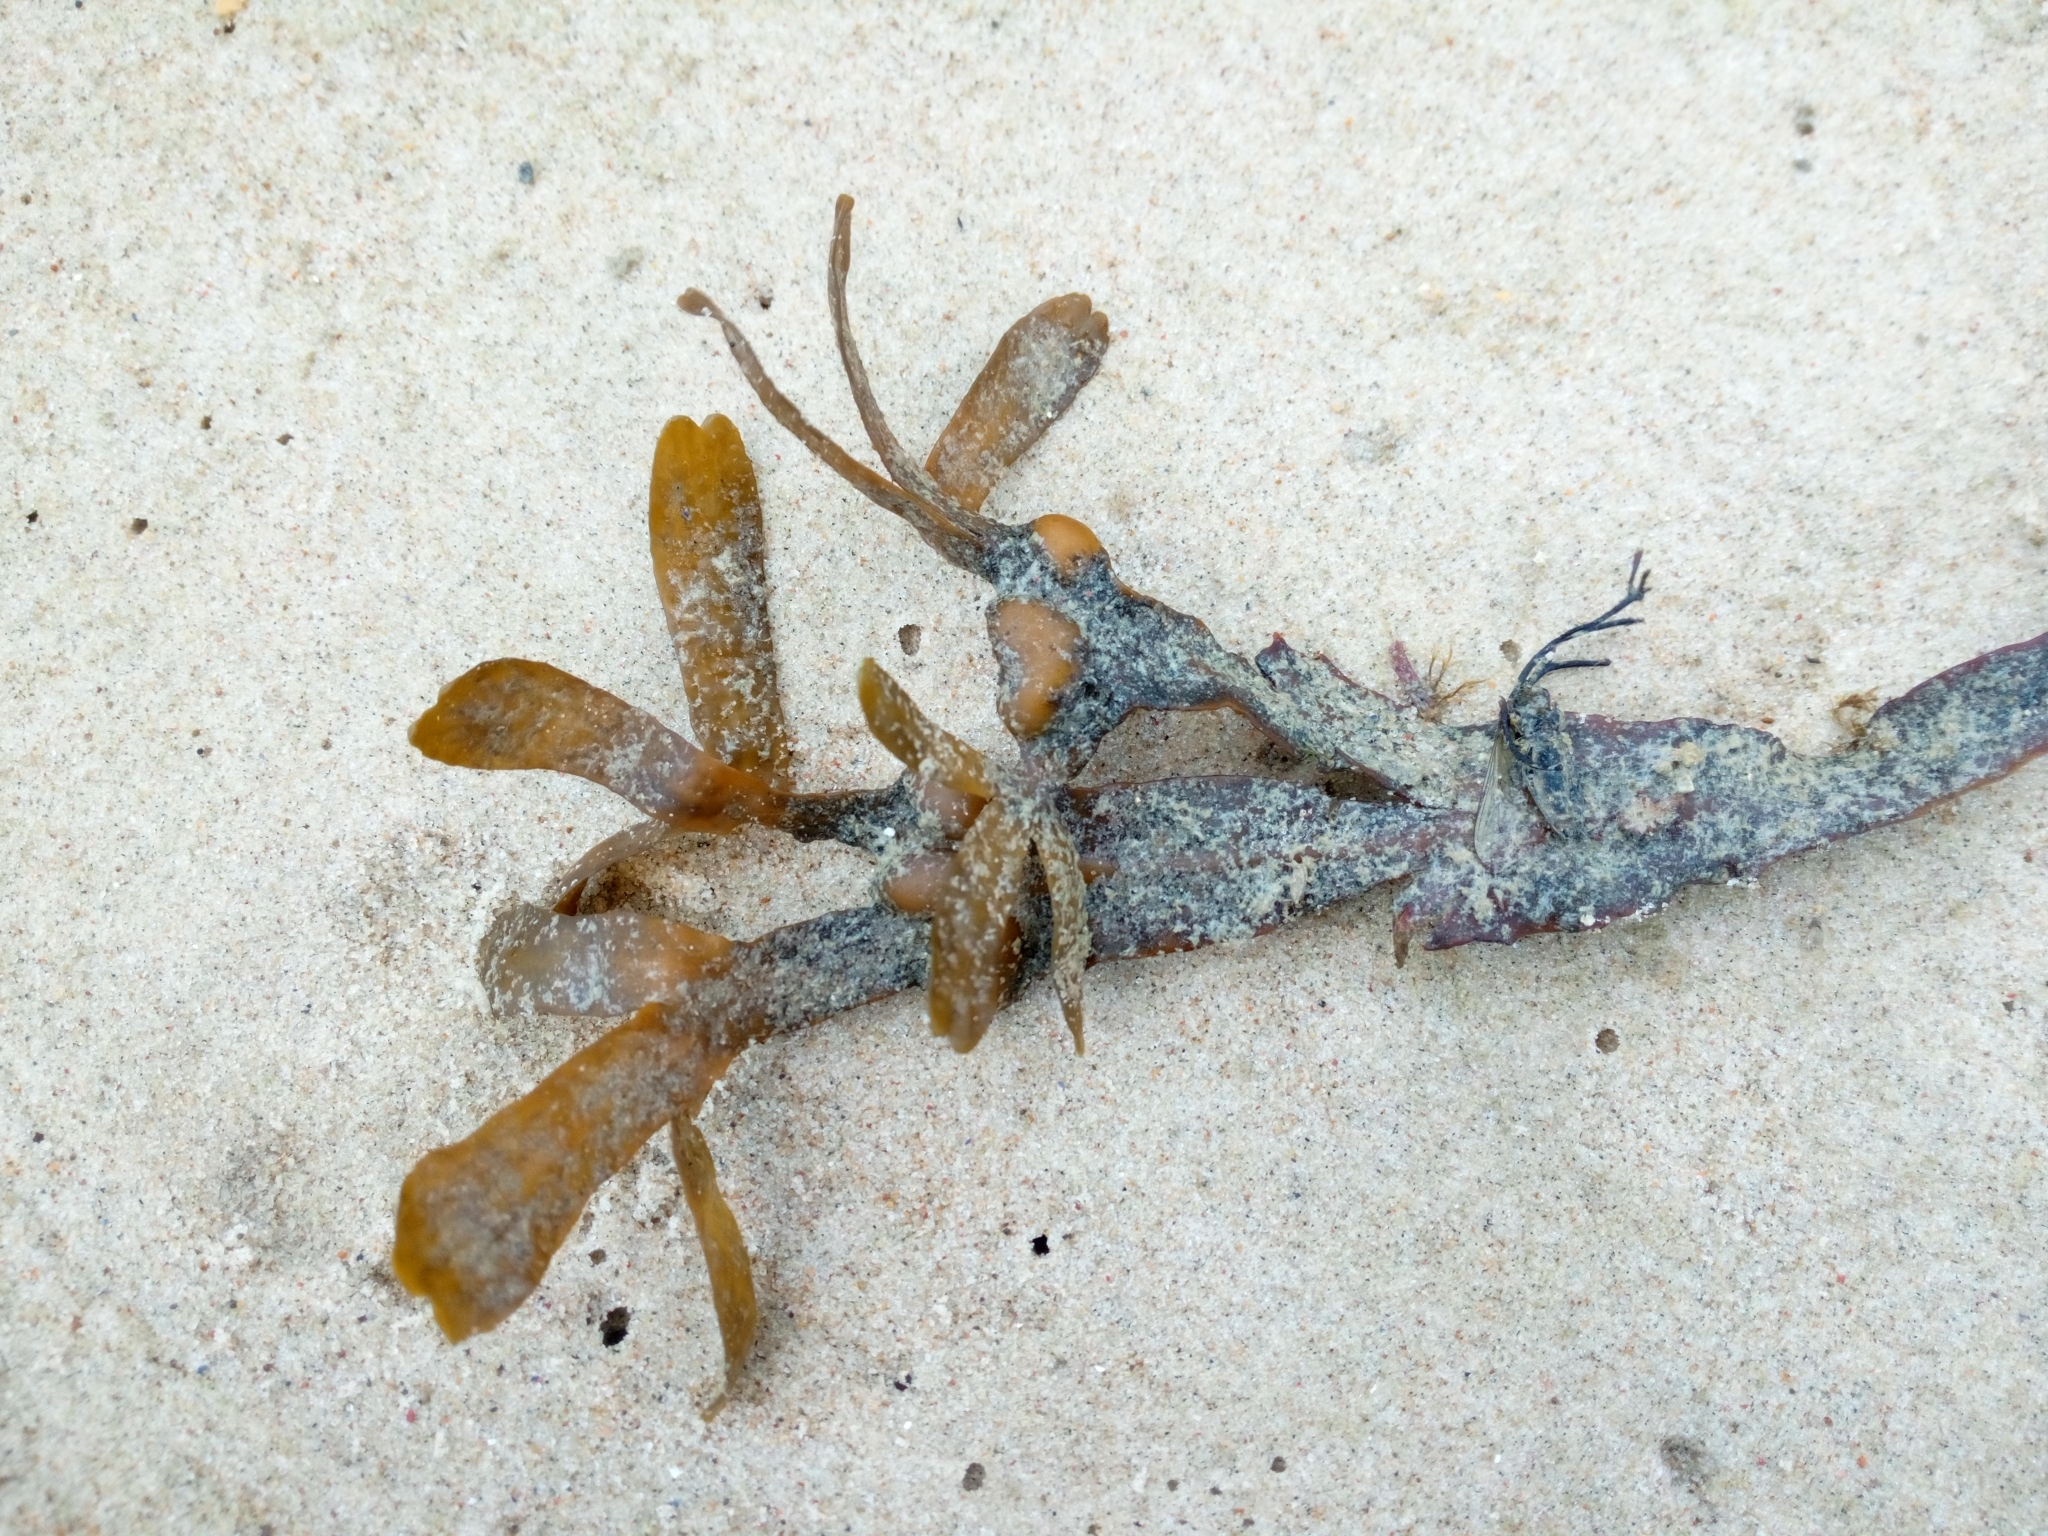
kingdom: Chromista
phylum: Ochrophyta
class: Phaeophyceae
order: Fucales
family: Fucaceae
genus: Fucus
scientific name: Fucus vesiculosus
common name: Bladder wrack
